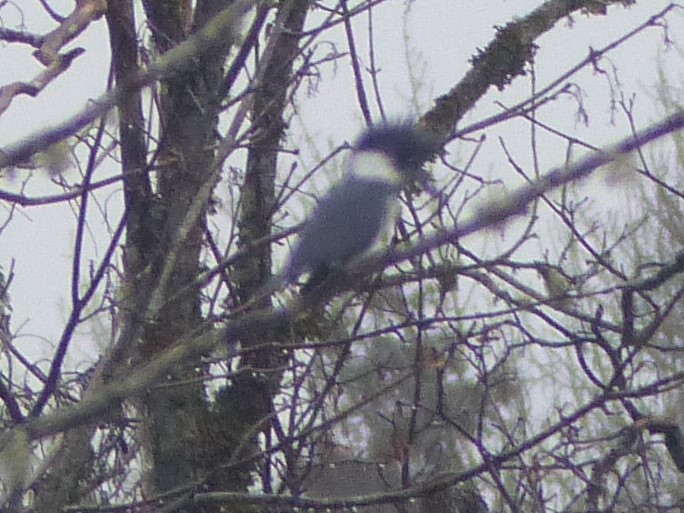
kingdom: Animalia
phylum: Chordata
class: Aves
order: Coraciiformes
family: Alcedinidae
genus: Megaceryle
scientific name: Megaceryle alcyon
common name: Belted kingfisher
